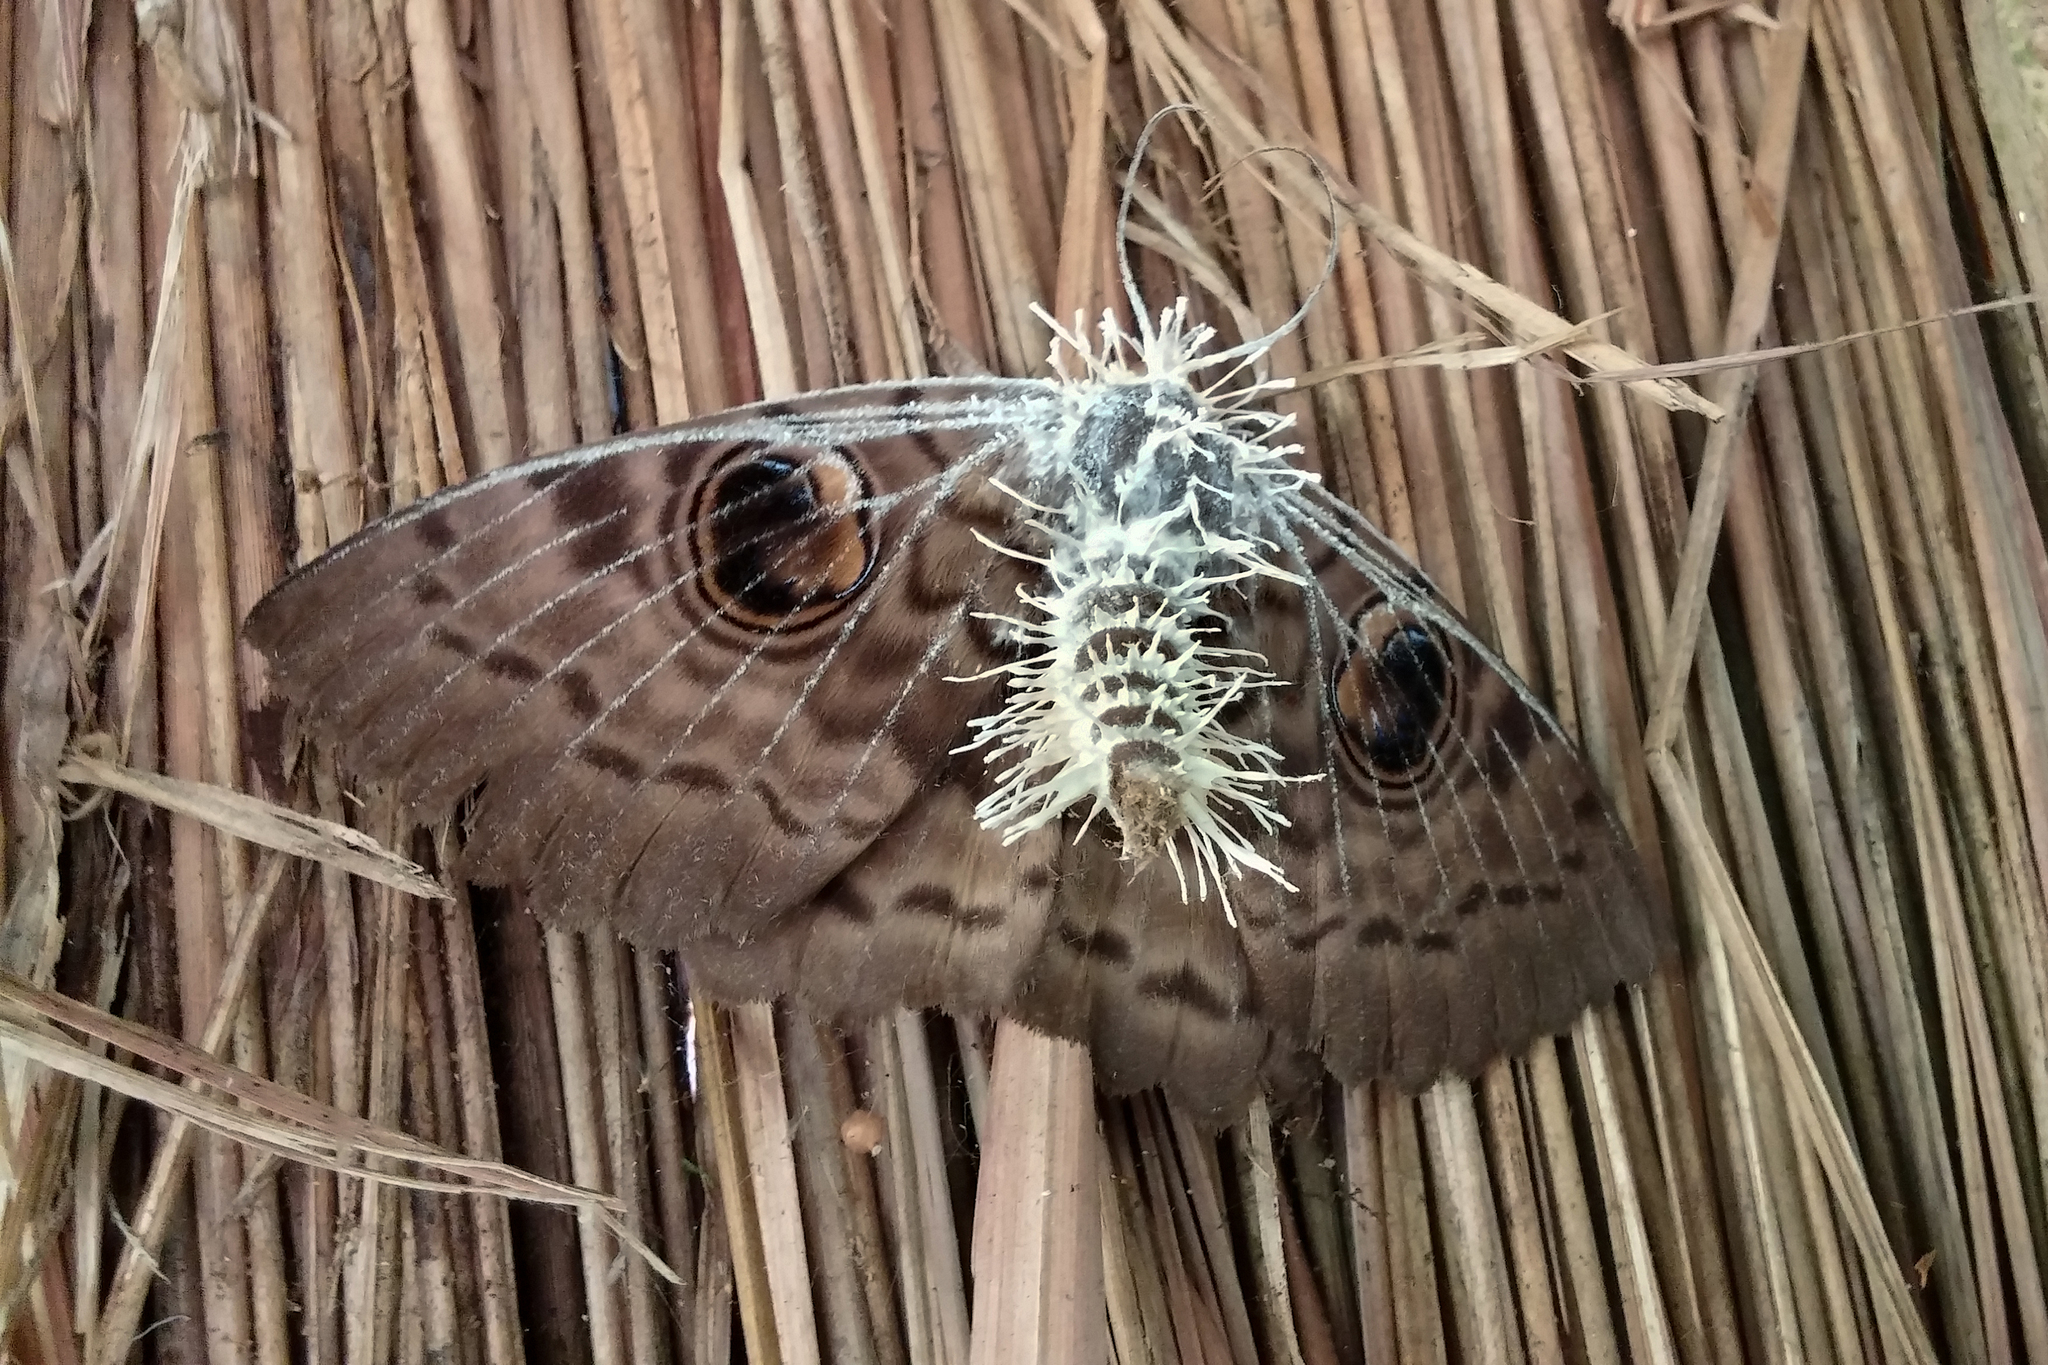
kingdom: Animalia
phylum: Arthropoda
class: Insecta
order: Lepidoptera
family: Erebidae
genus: Erebus
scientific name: Erebus walkeri
